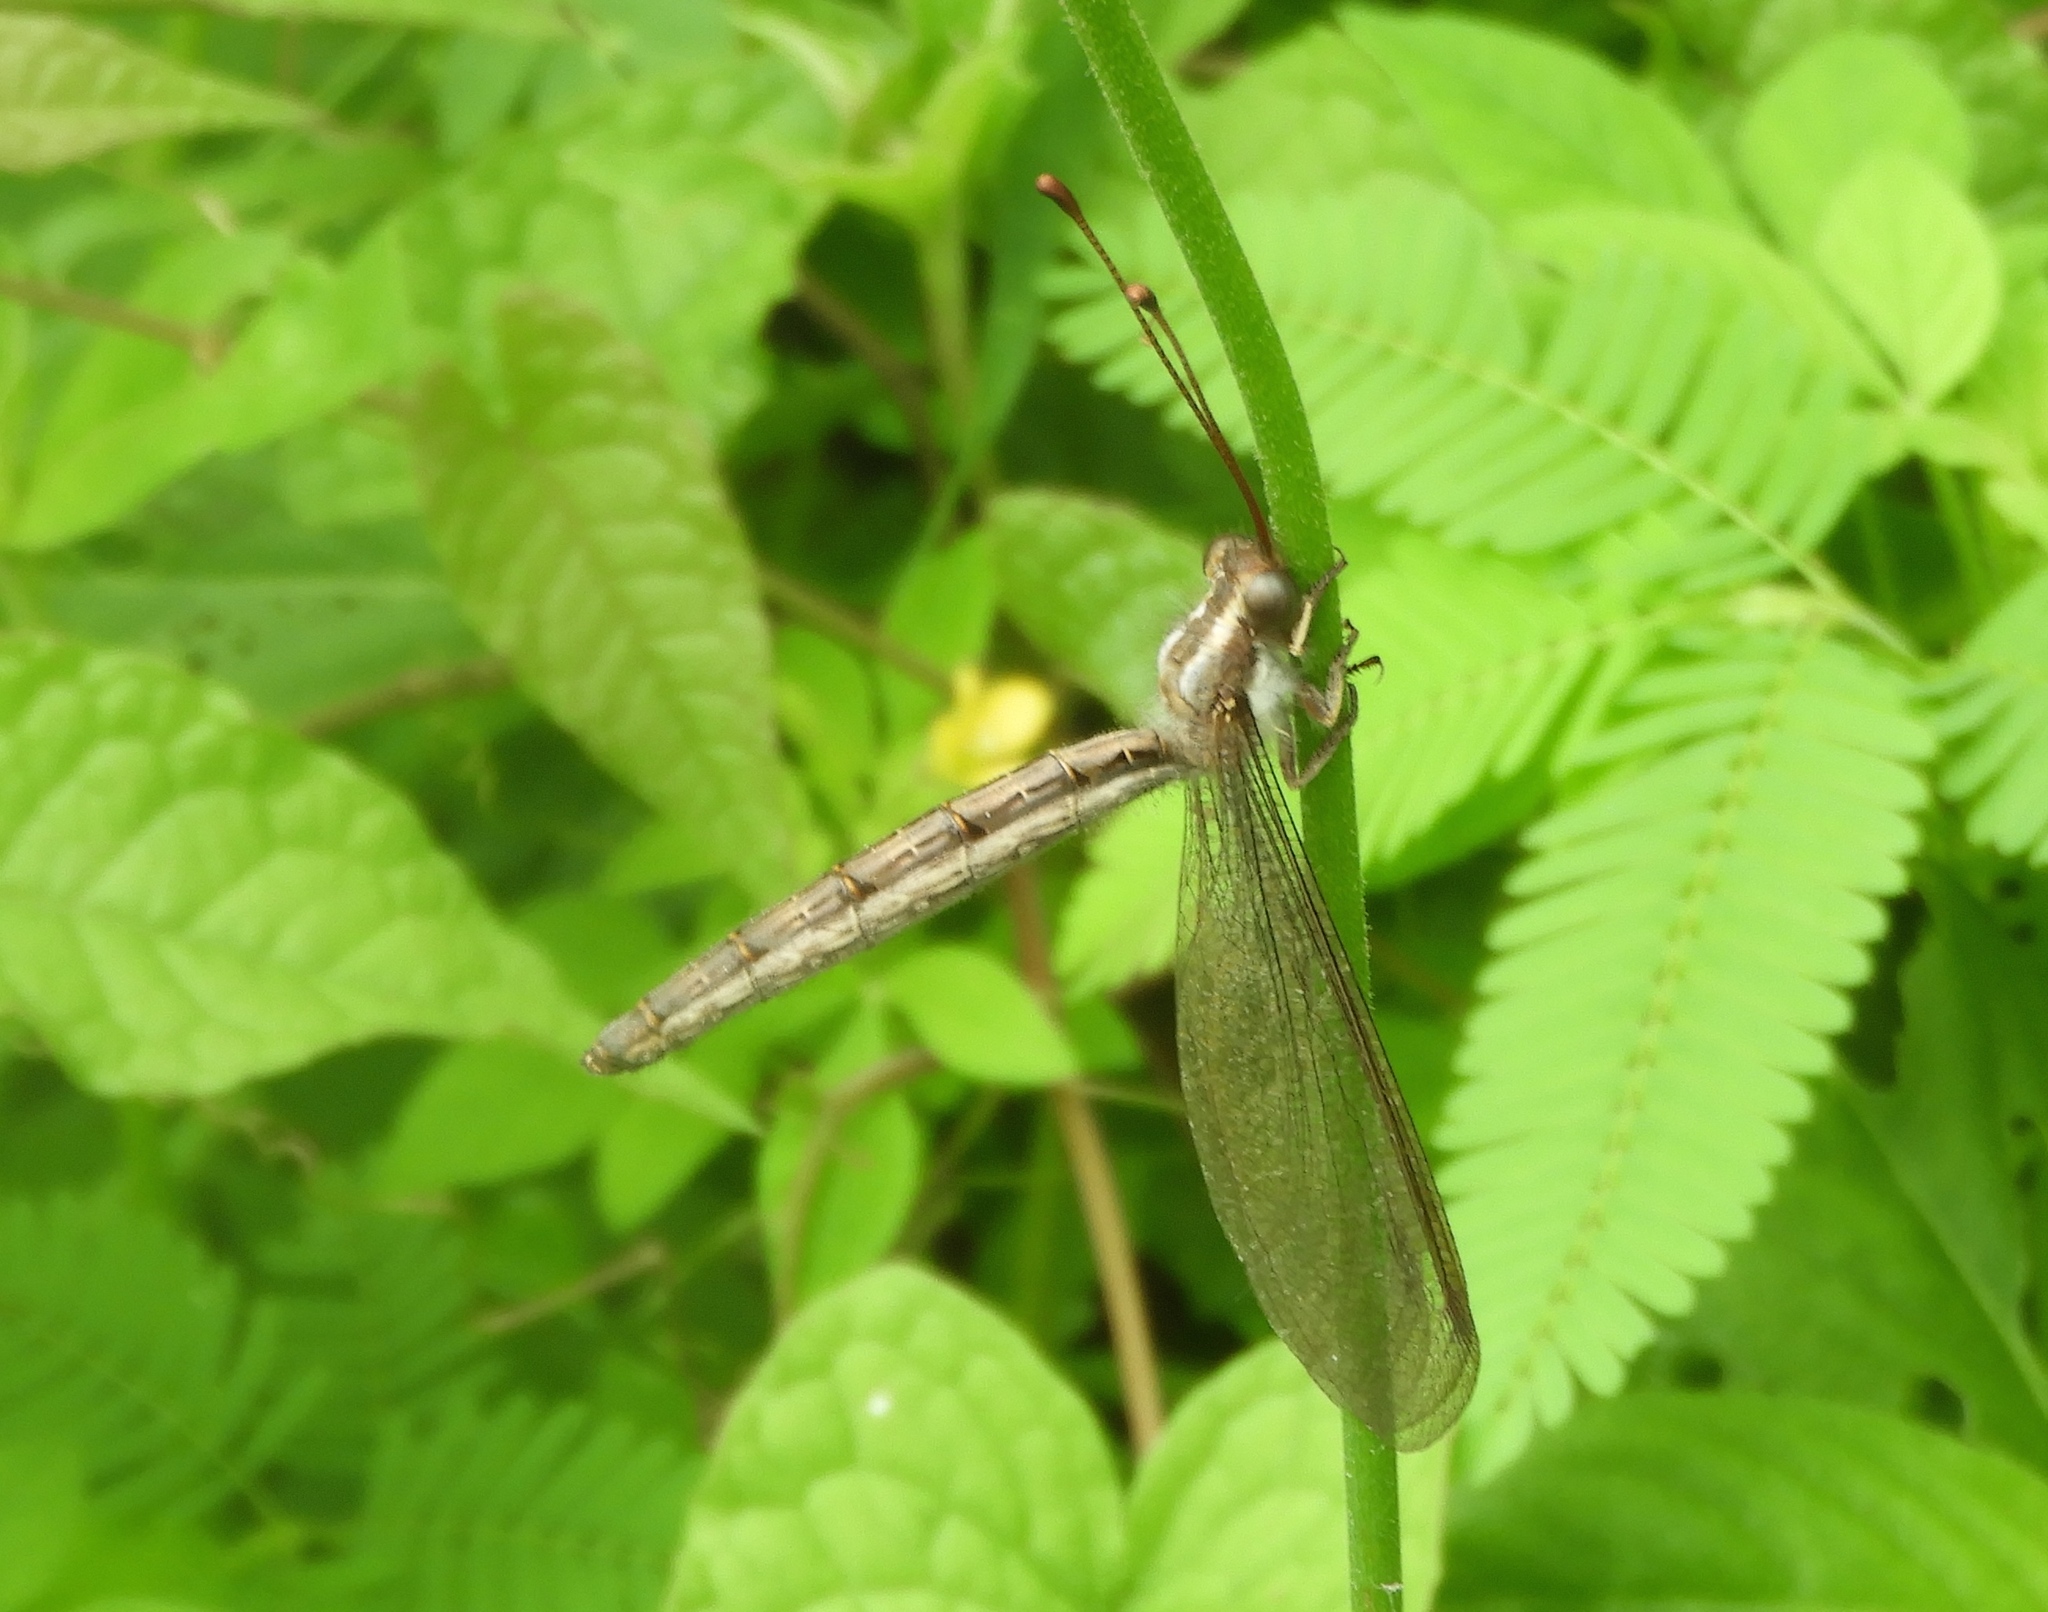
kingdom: Animalia
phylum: Arthropoda
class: Insecta
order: Neuroptera
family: Ascalaphidae
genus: Ascaloptynx
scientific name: Ascaloptynx appendiculata
